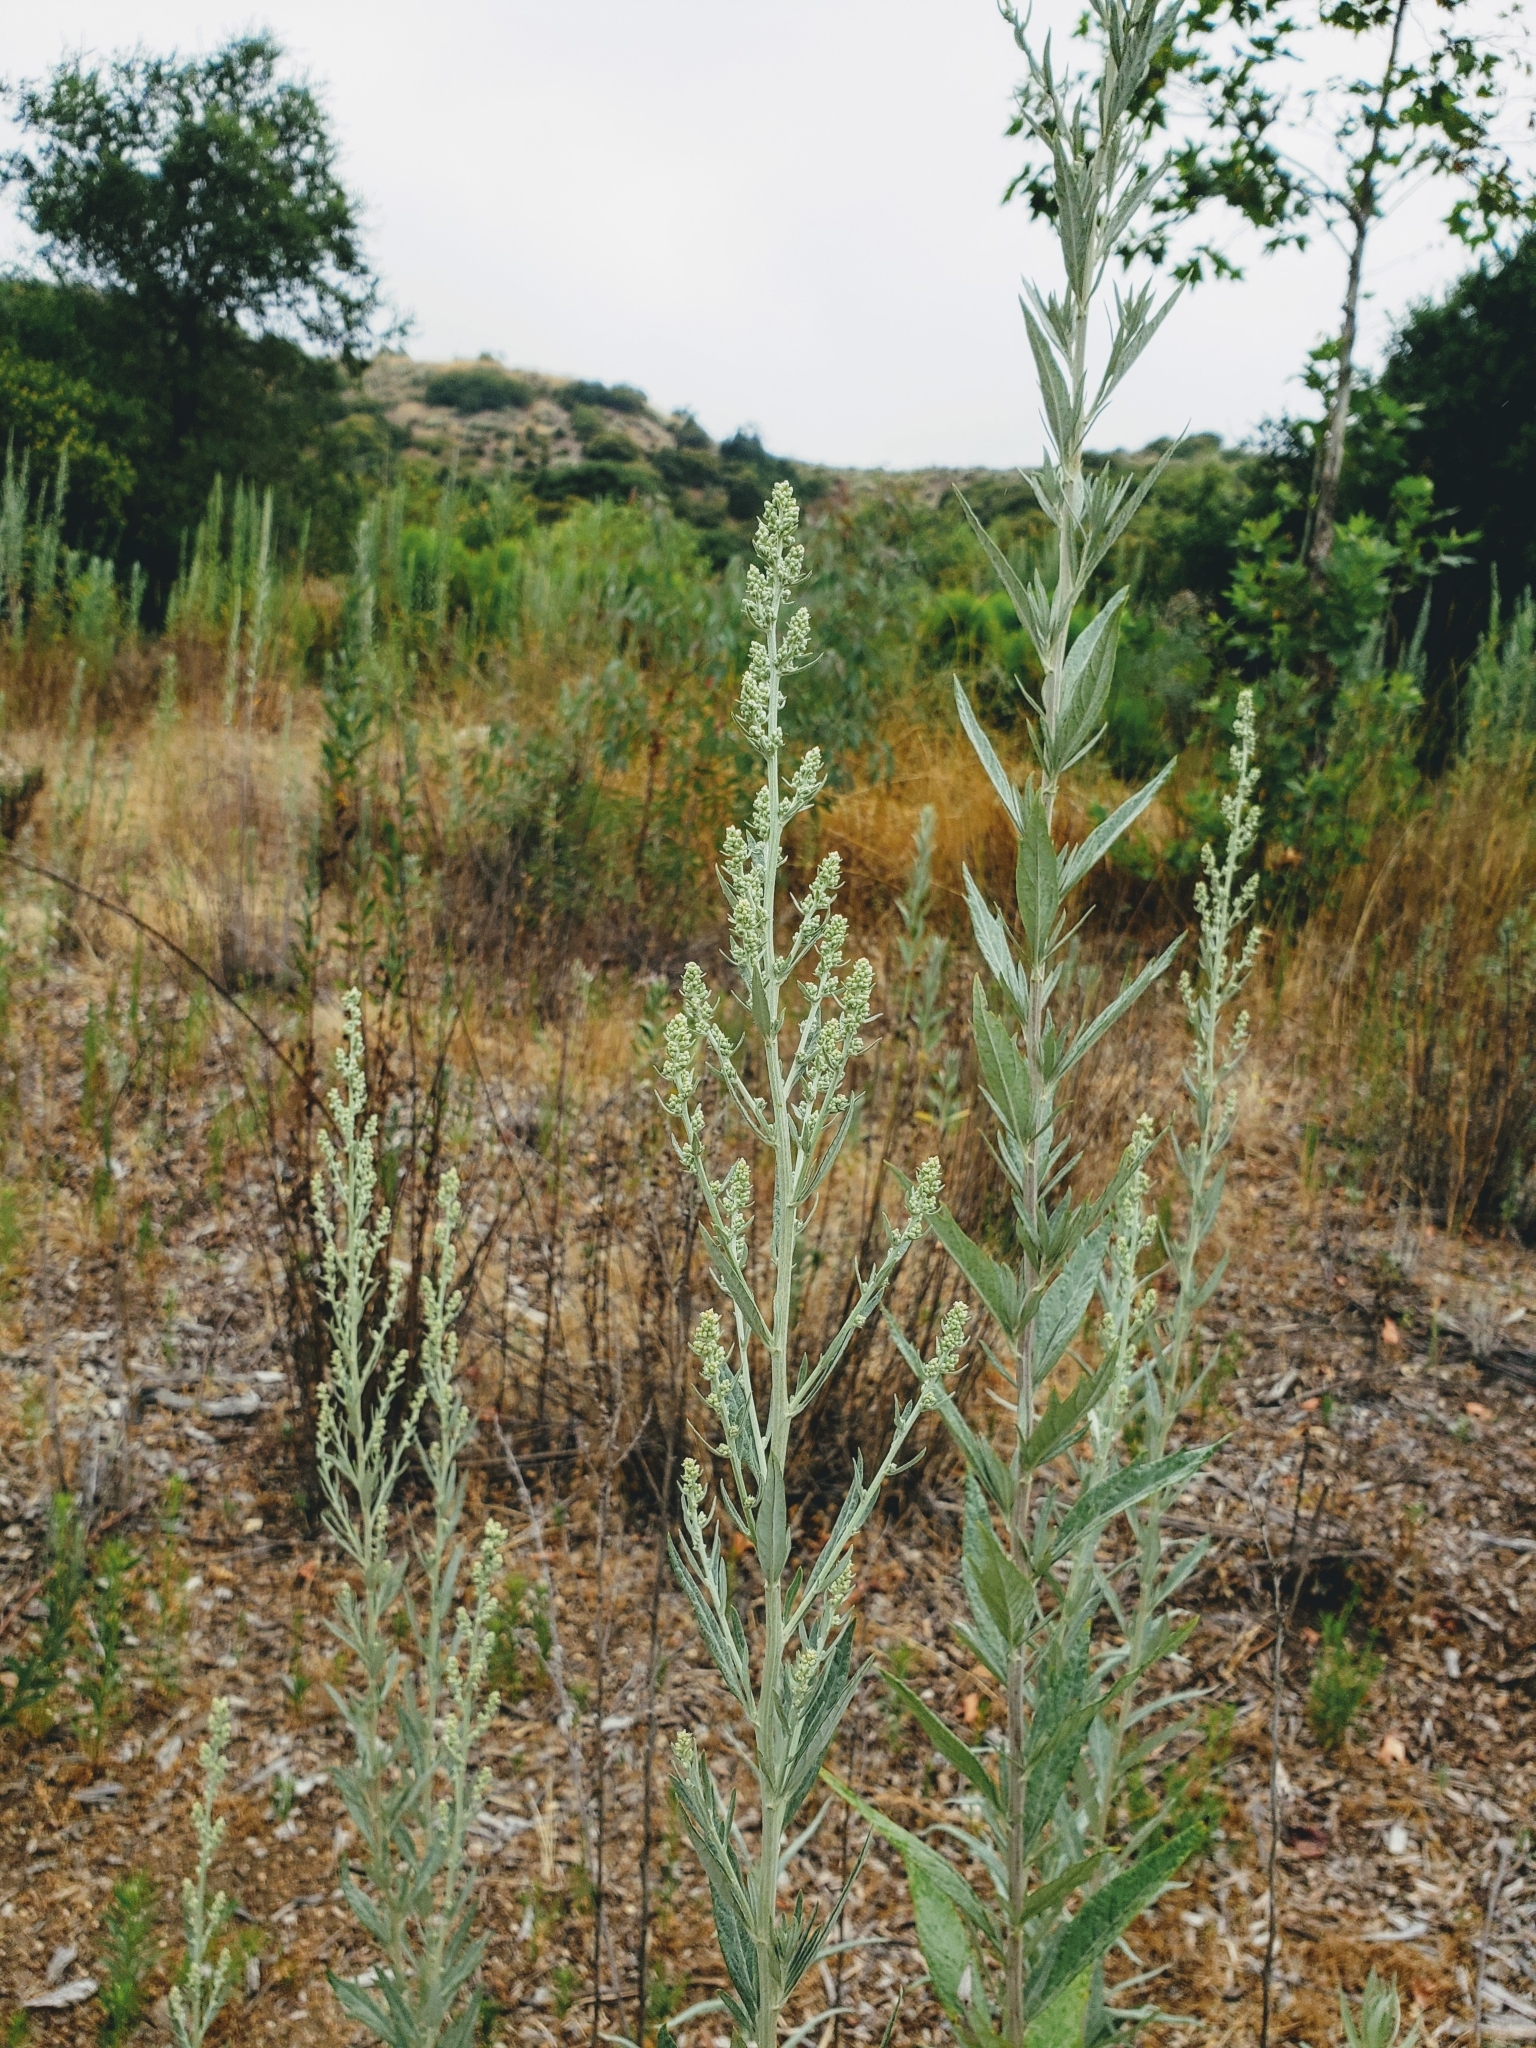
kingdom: Plantae
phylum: Tracheophyta
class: Magnoliopsida
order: Asterales
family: Asteraceae
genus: Artemisia
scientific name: Artemisia douglasiana
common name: Northwest mugwort
